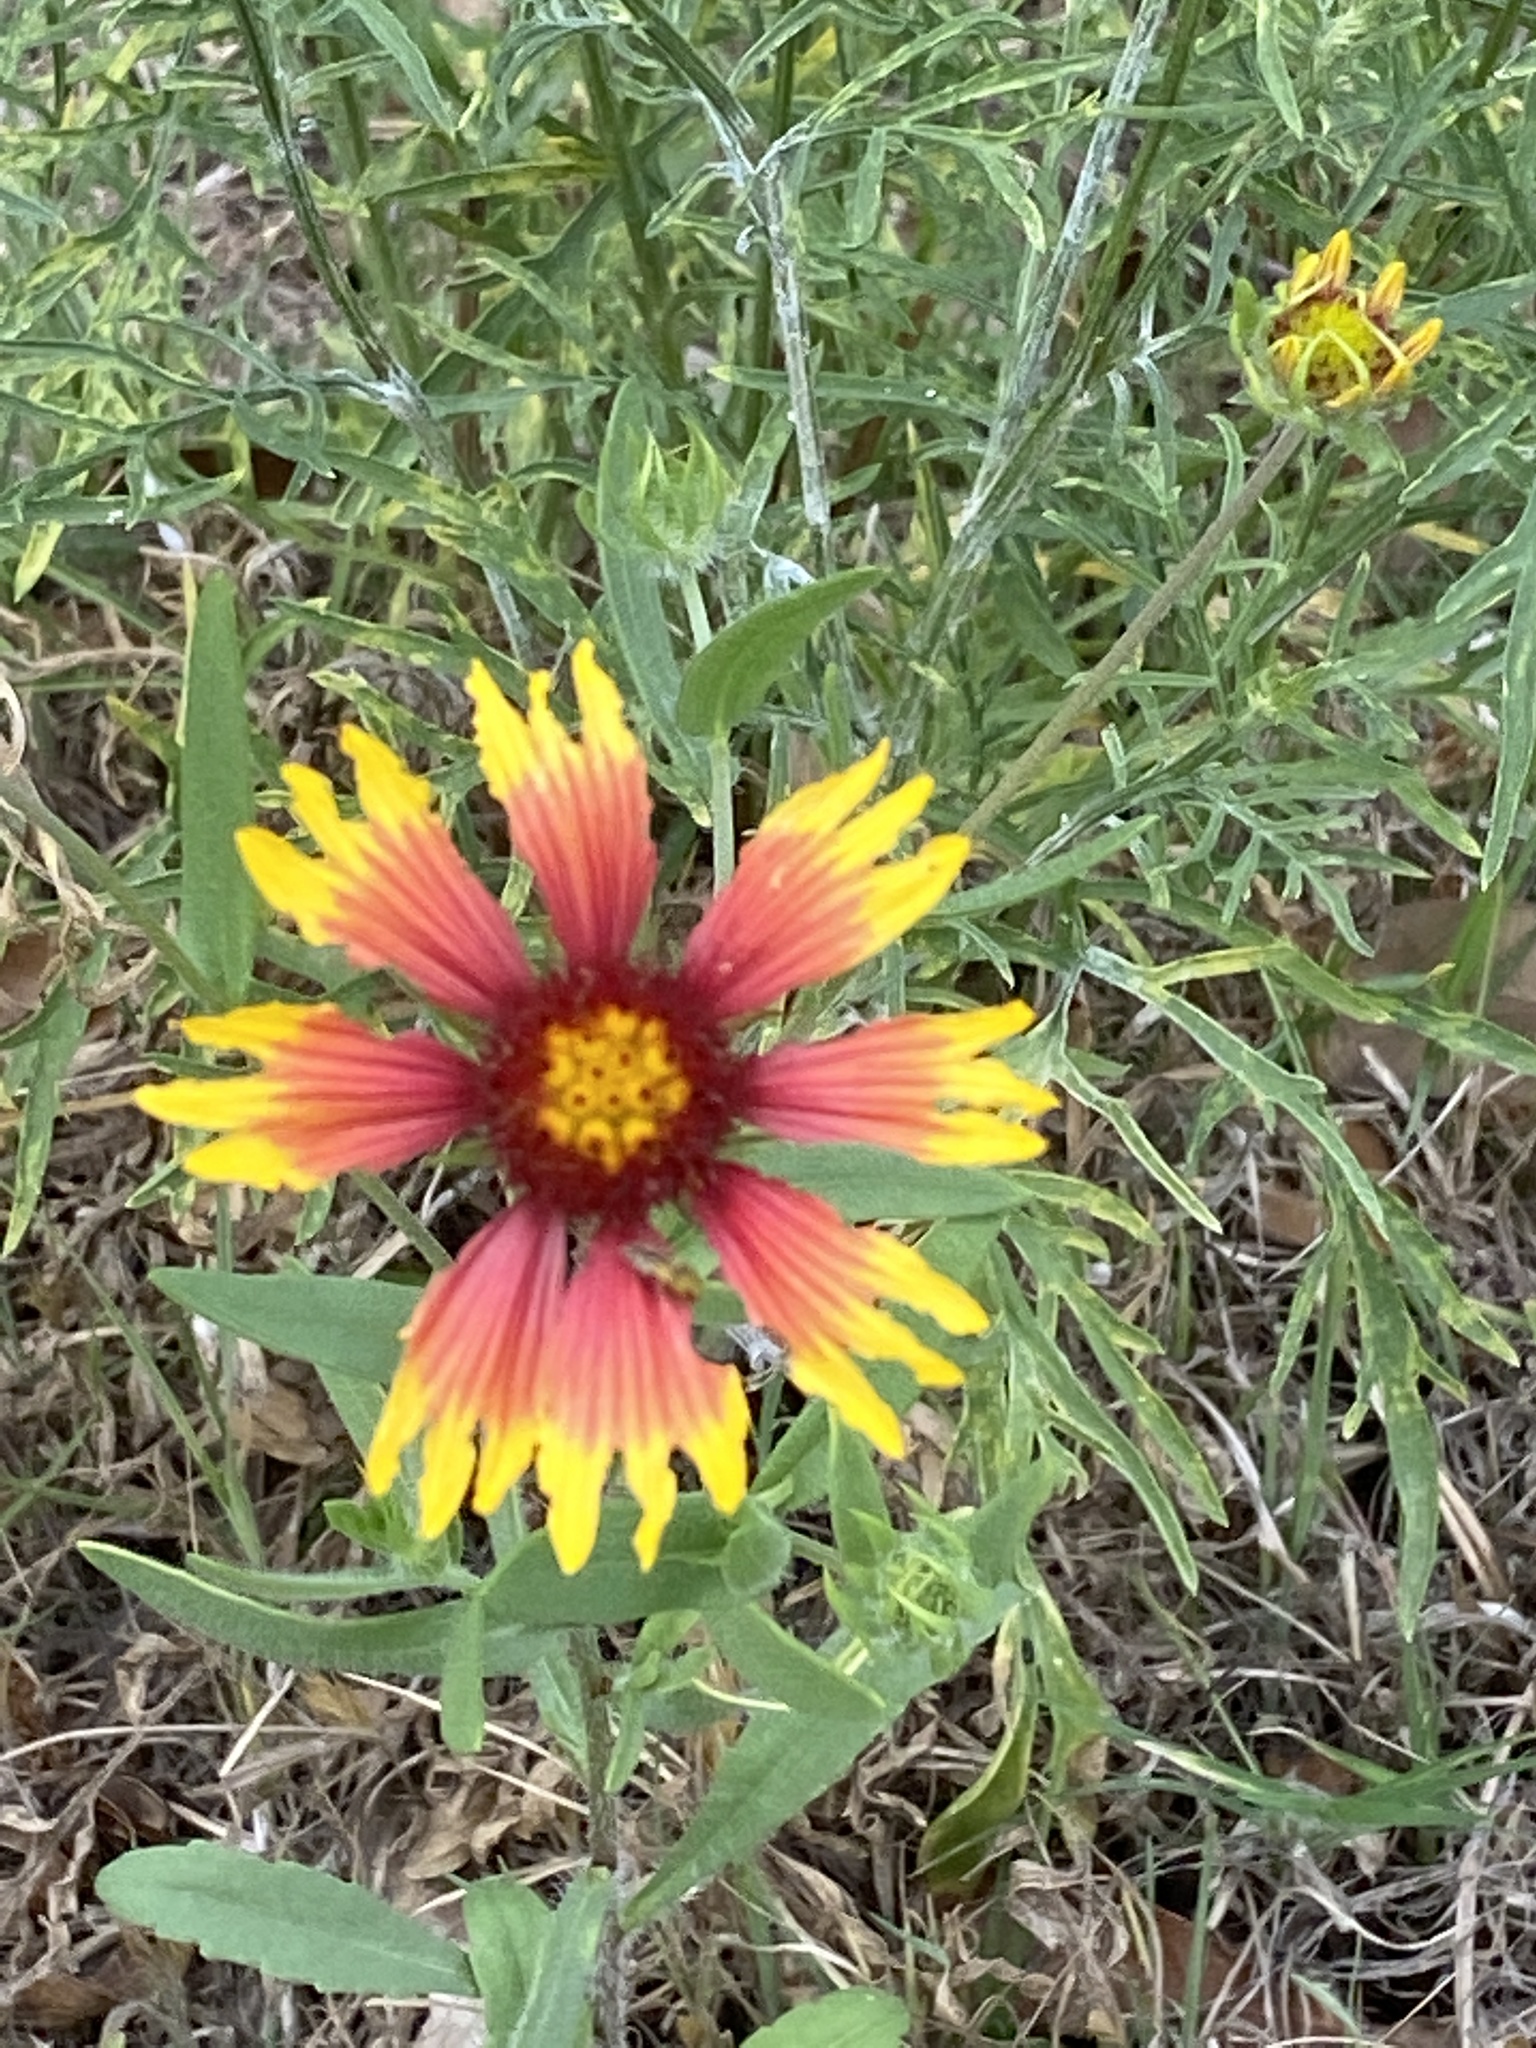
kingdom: Plantae
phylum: Tracheophyta
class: Magnoliopsida
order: Asterales
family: Asteraceae
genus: Gaillardia
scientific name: Gaillardia pulchella
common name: Firewheel
